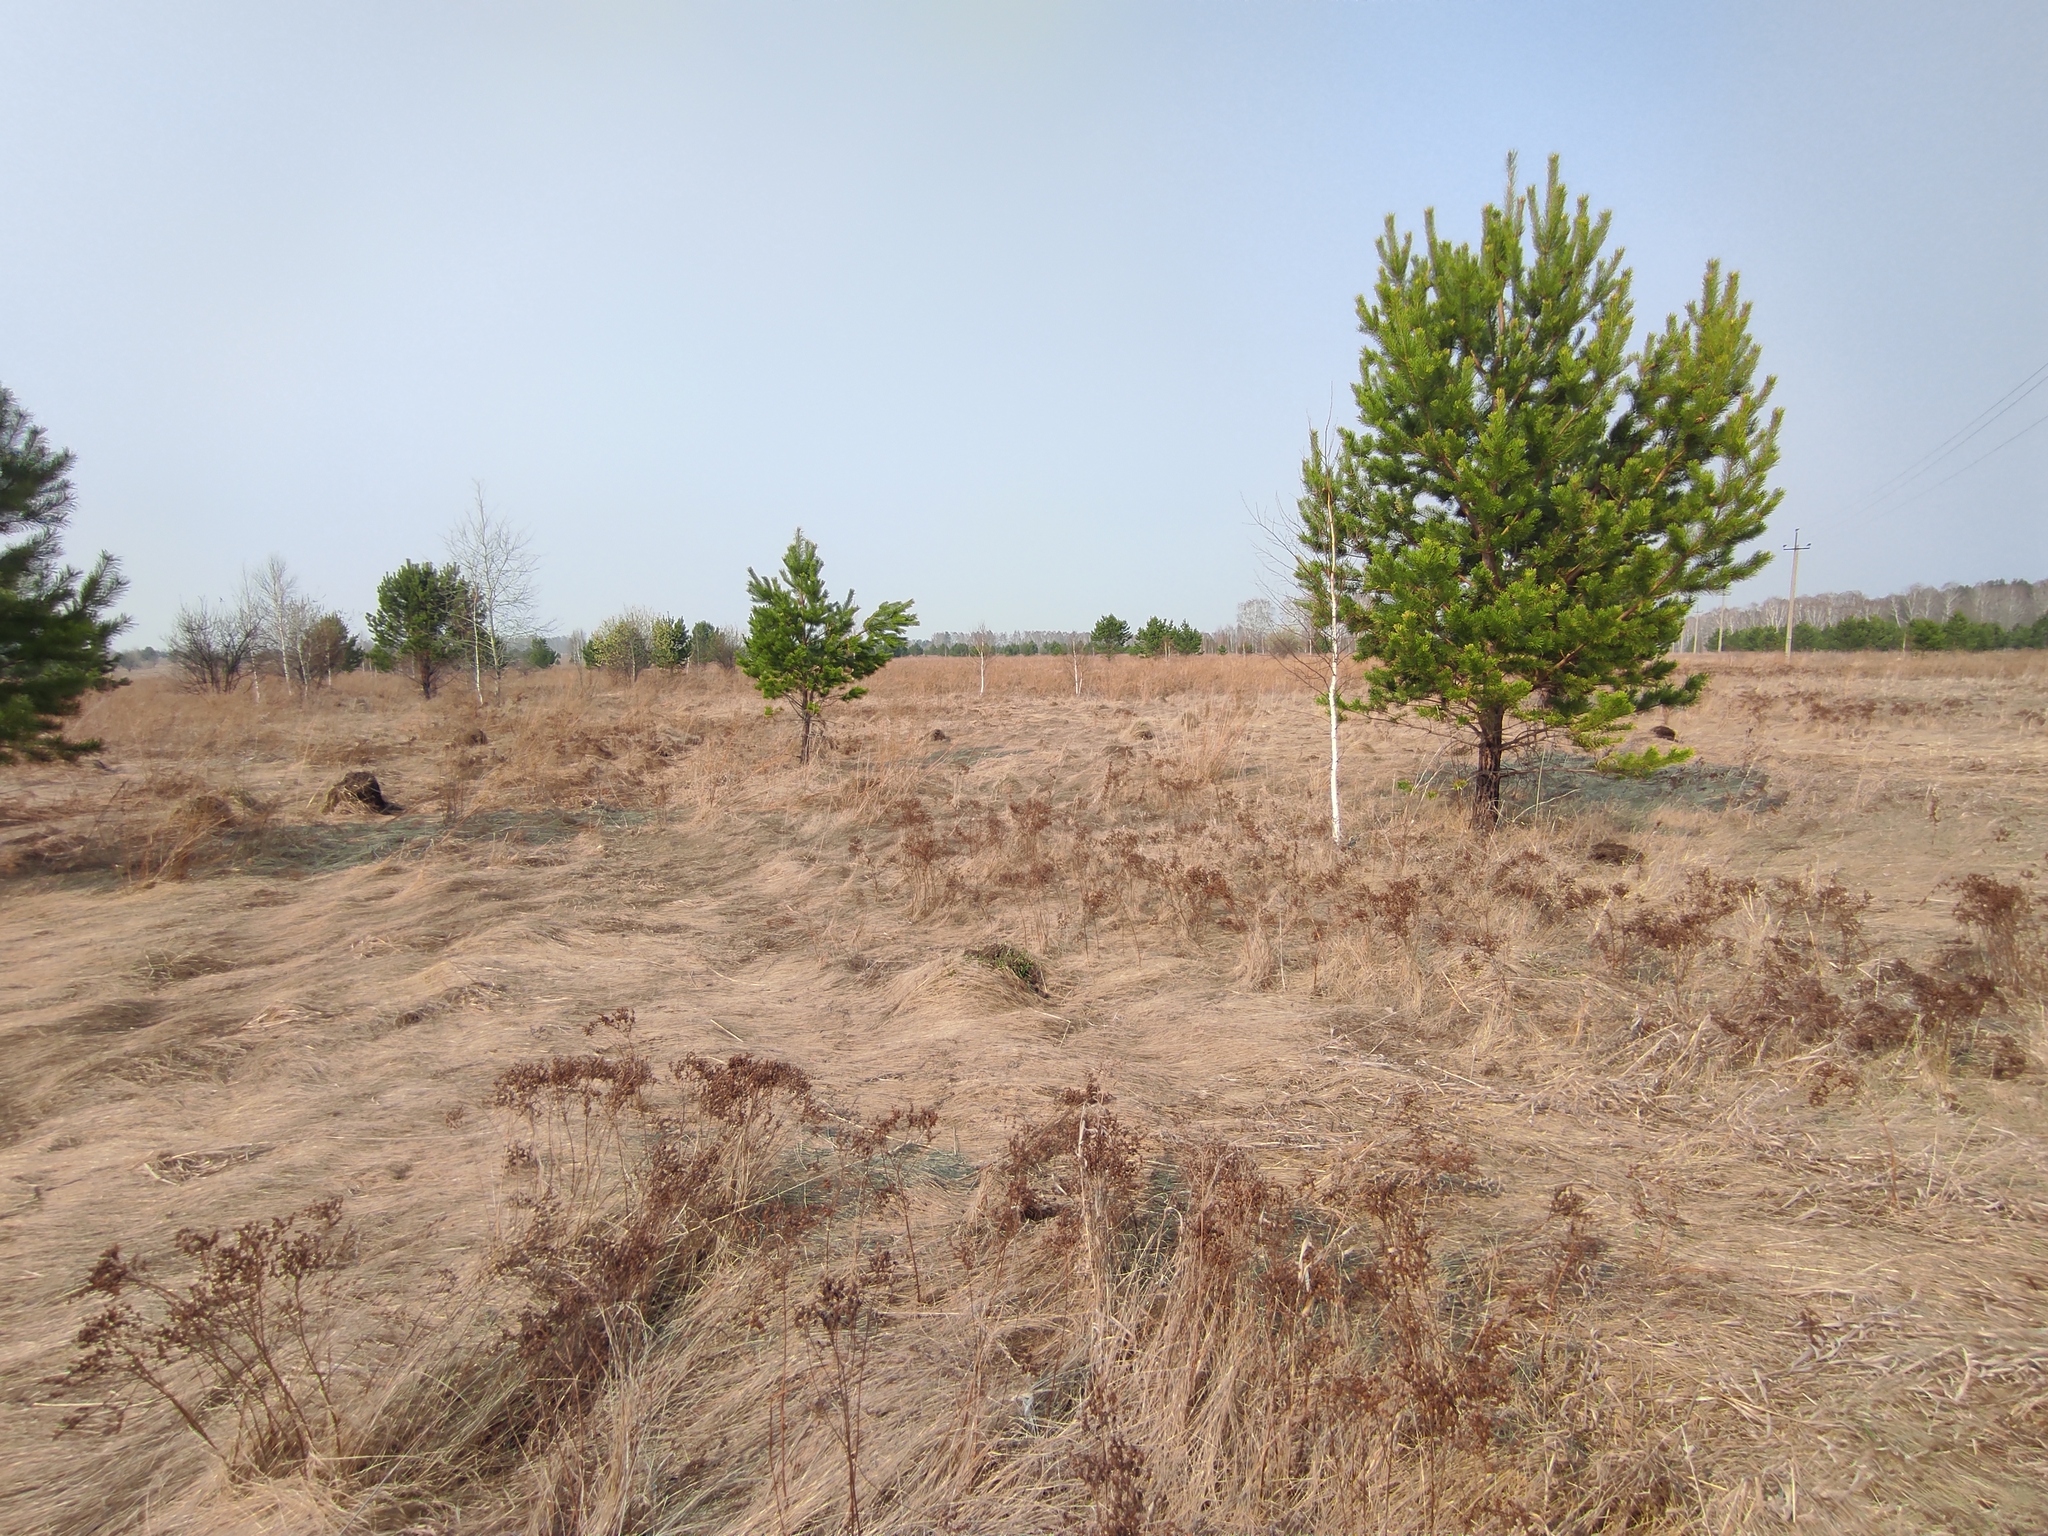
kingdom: Plantae
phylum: Tracheophyta
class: Pinopsida
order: Pinales
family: Pinaceae
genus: Pinus
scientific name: Pinus sylvestris
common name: Scots pine
